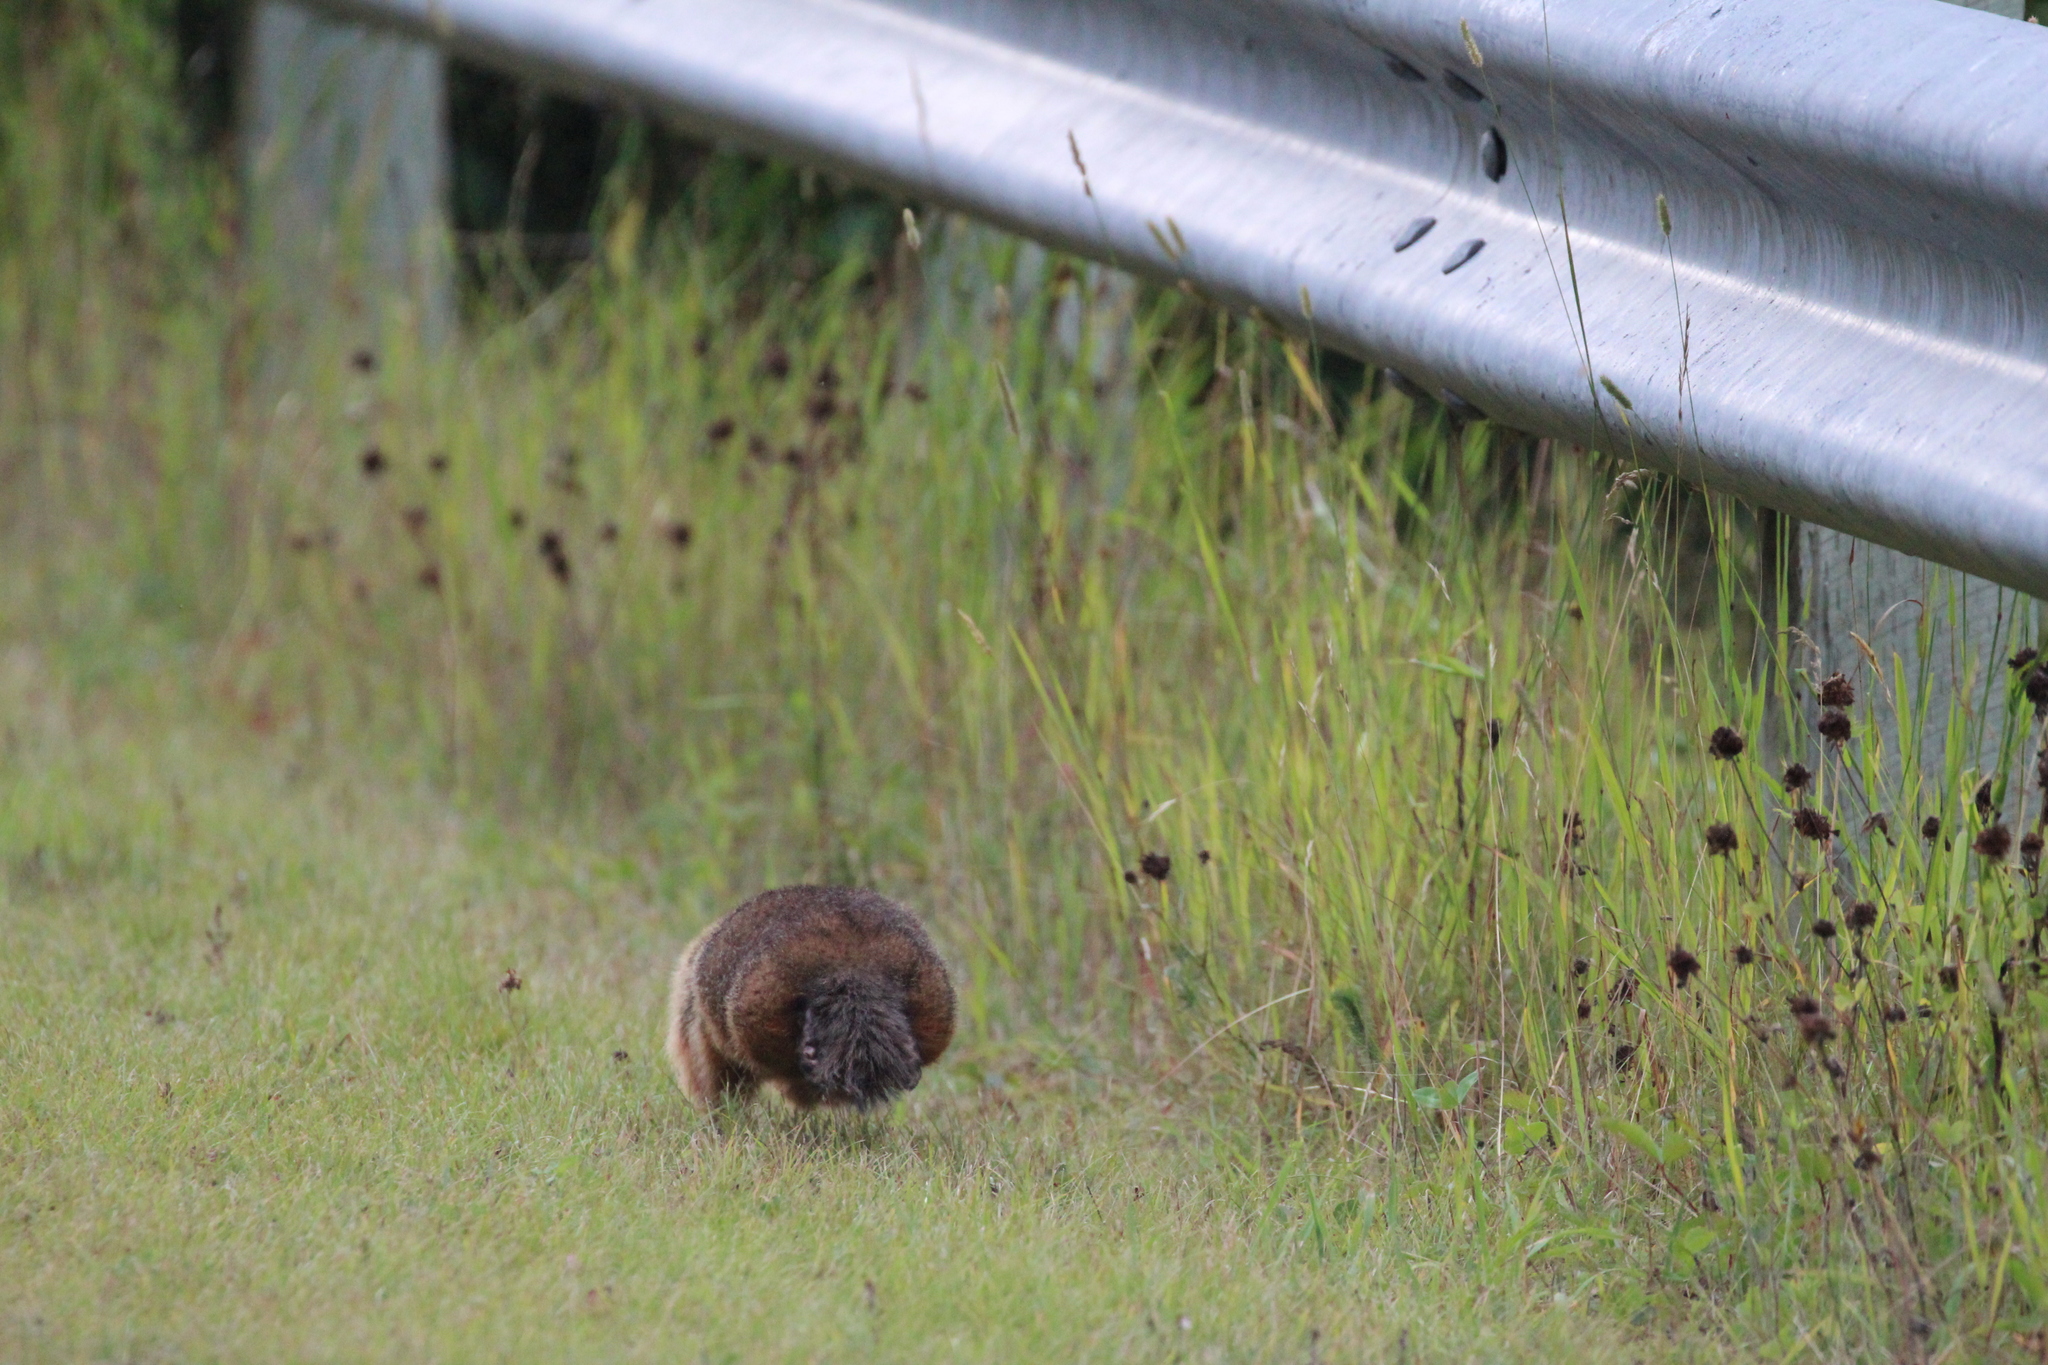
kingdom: Animalia
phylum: Chordata
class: Mammalia
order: Rodentia
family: Sciuridae
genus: Marmota
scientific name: Marmota monax
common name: Groundhog
